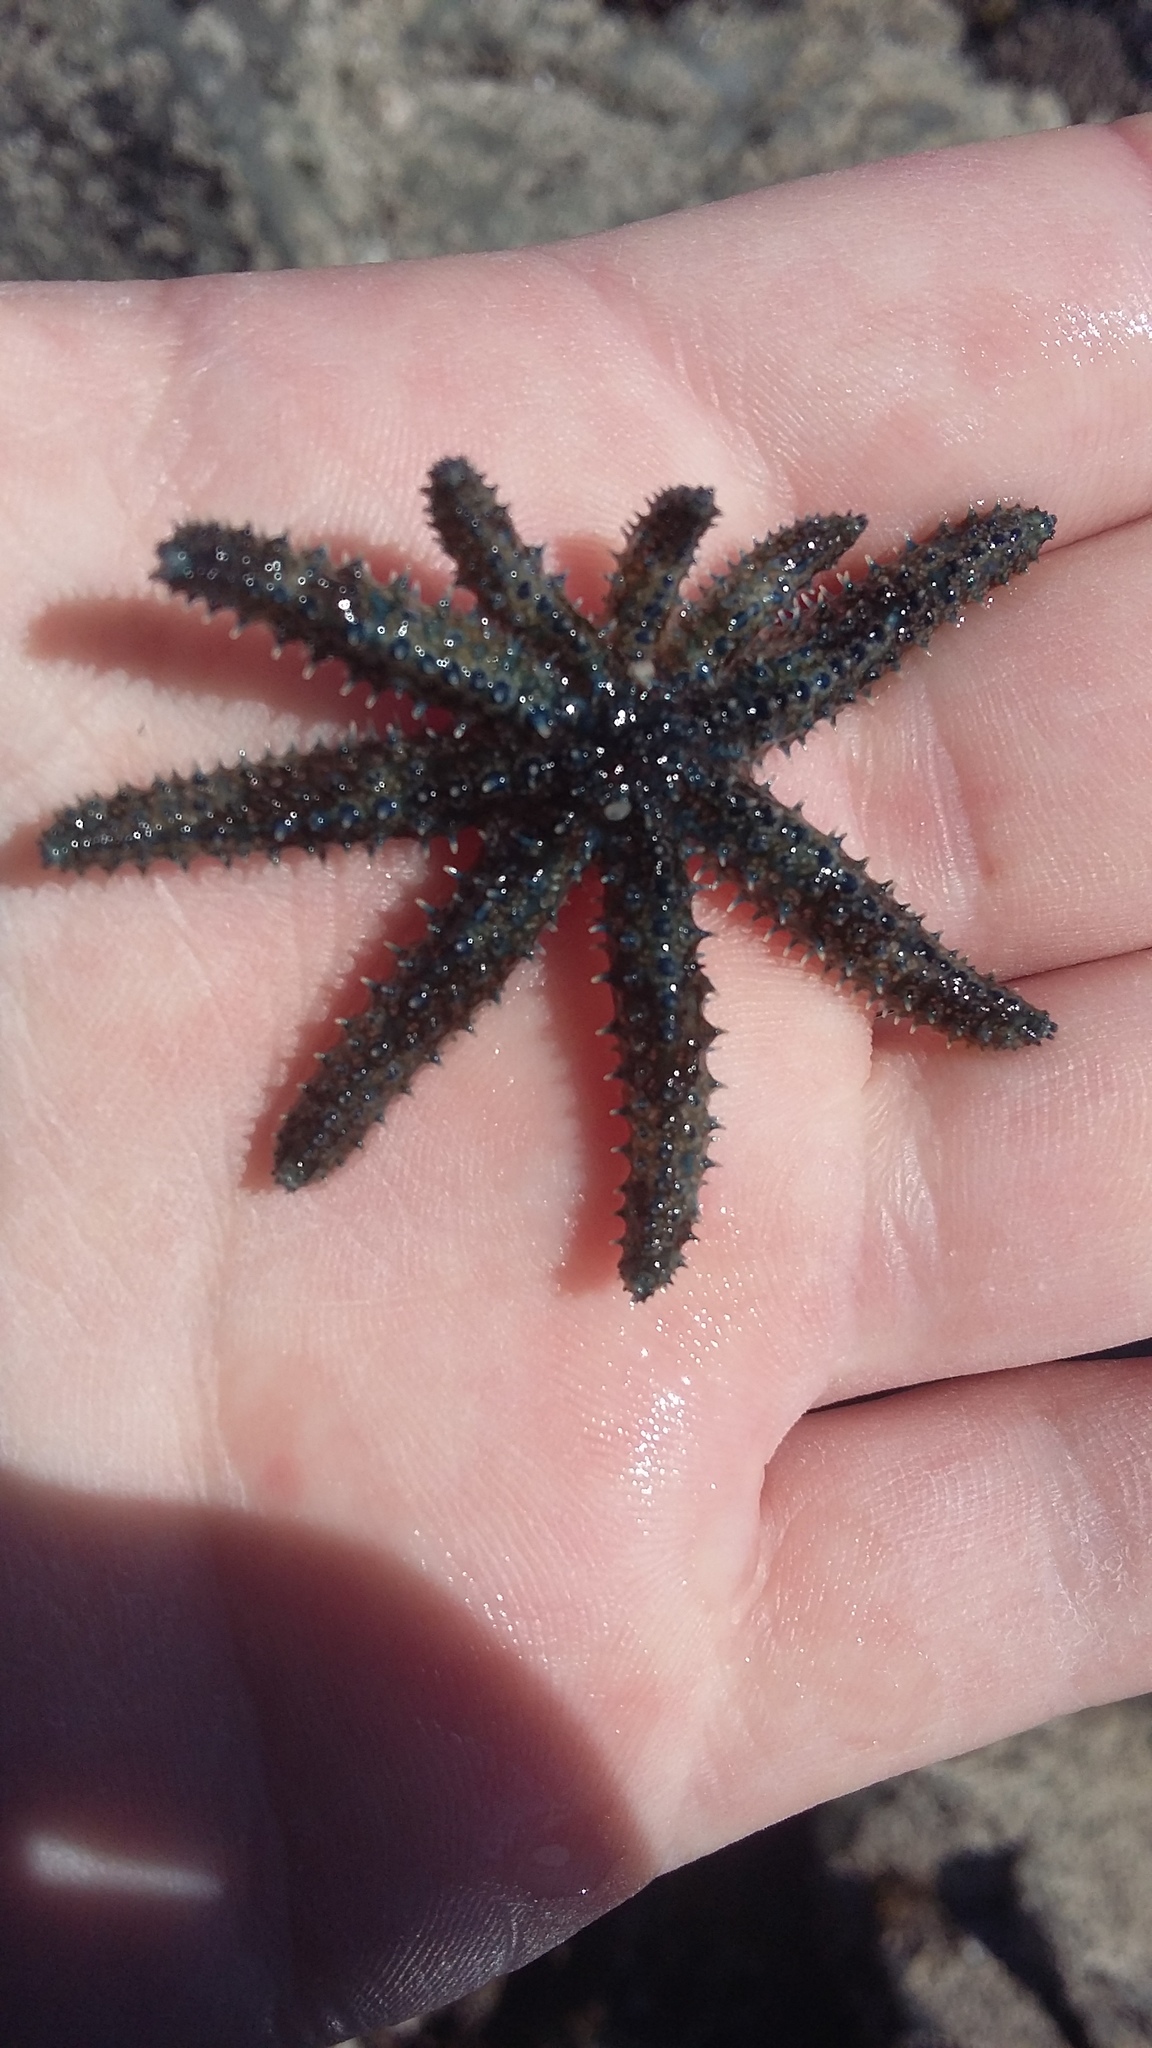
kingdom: Animalia
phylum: Echinodermata
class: Asteroidea
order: Forcipulatida
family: Asteriidae
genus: Coscinasterias
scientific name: Coscinasterias muricata
